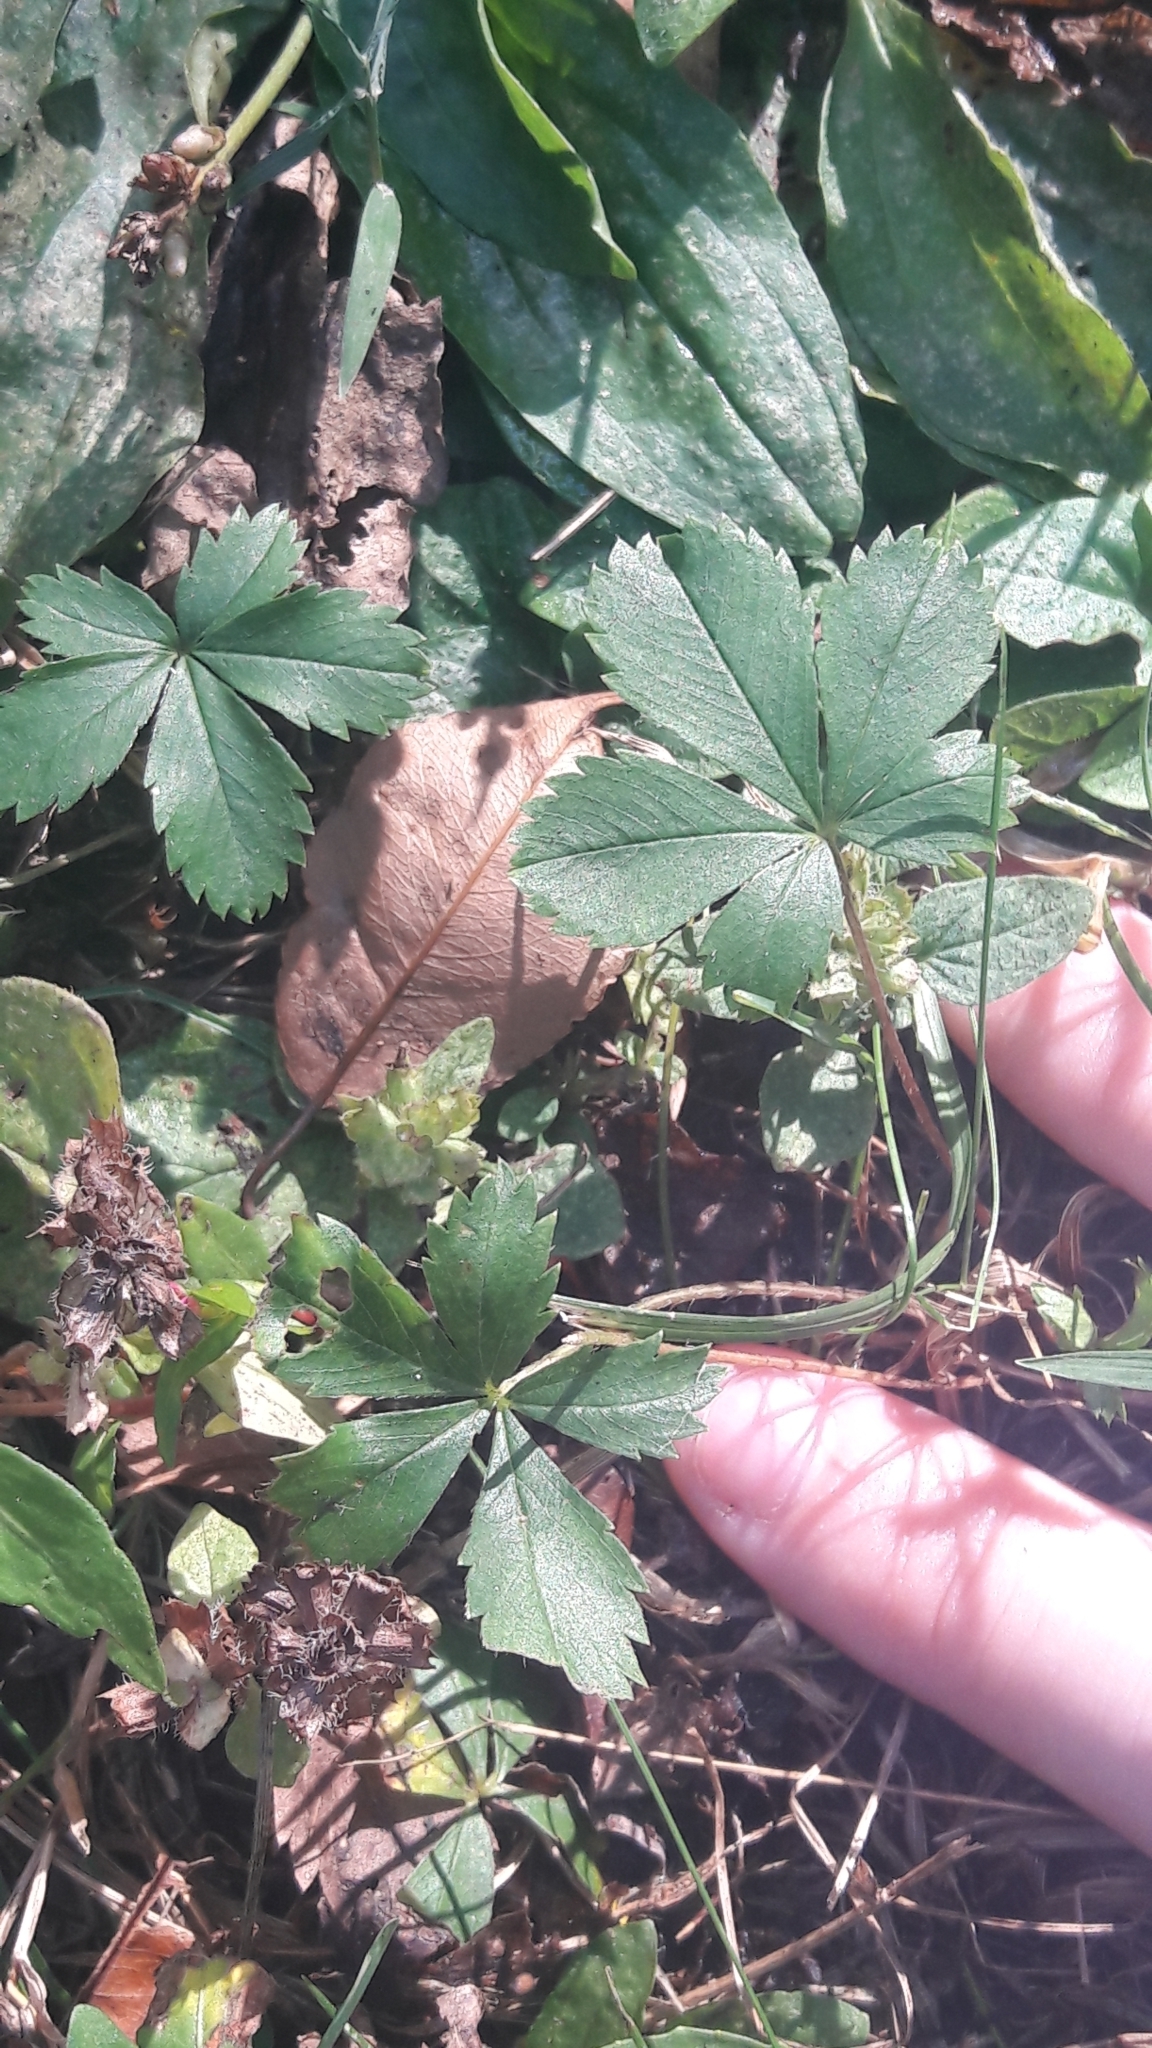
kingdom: Plantae
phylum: Tracheophyta
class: Magnoliopsida
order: Rosales
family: Rosaceae
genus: Potentilla
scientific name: Potentilla canadensis
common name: Canada cinquefoil
